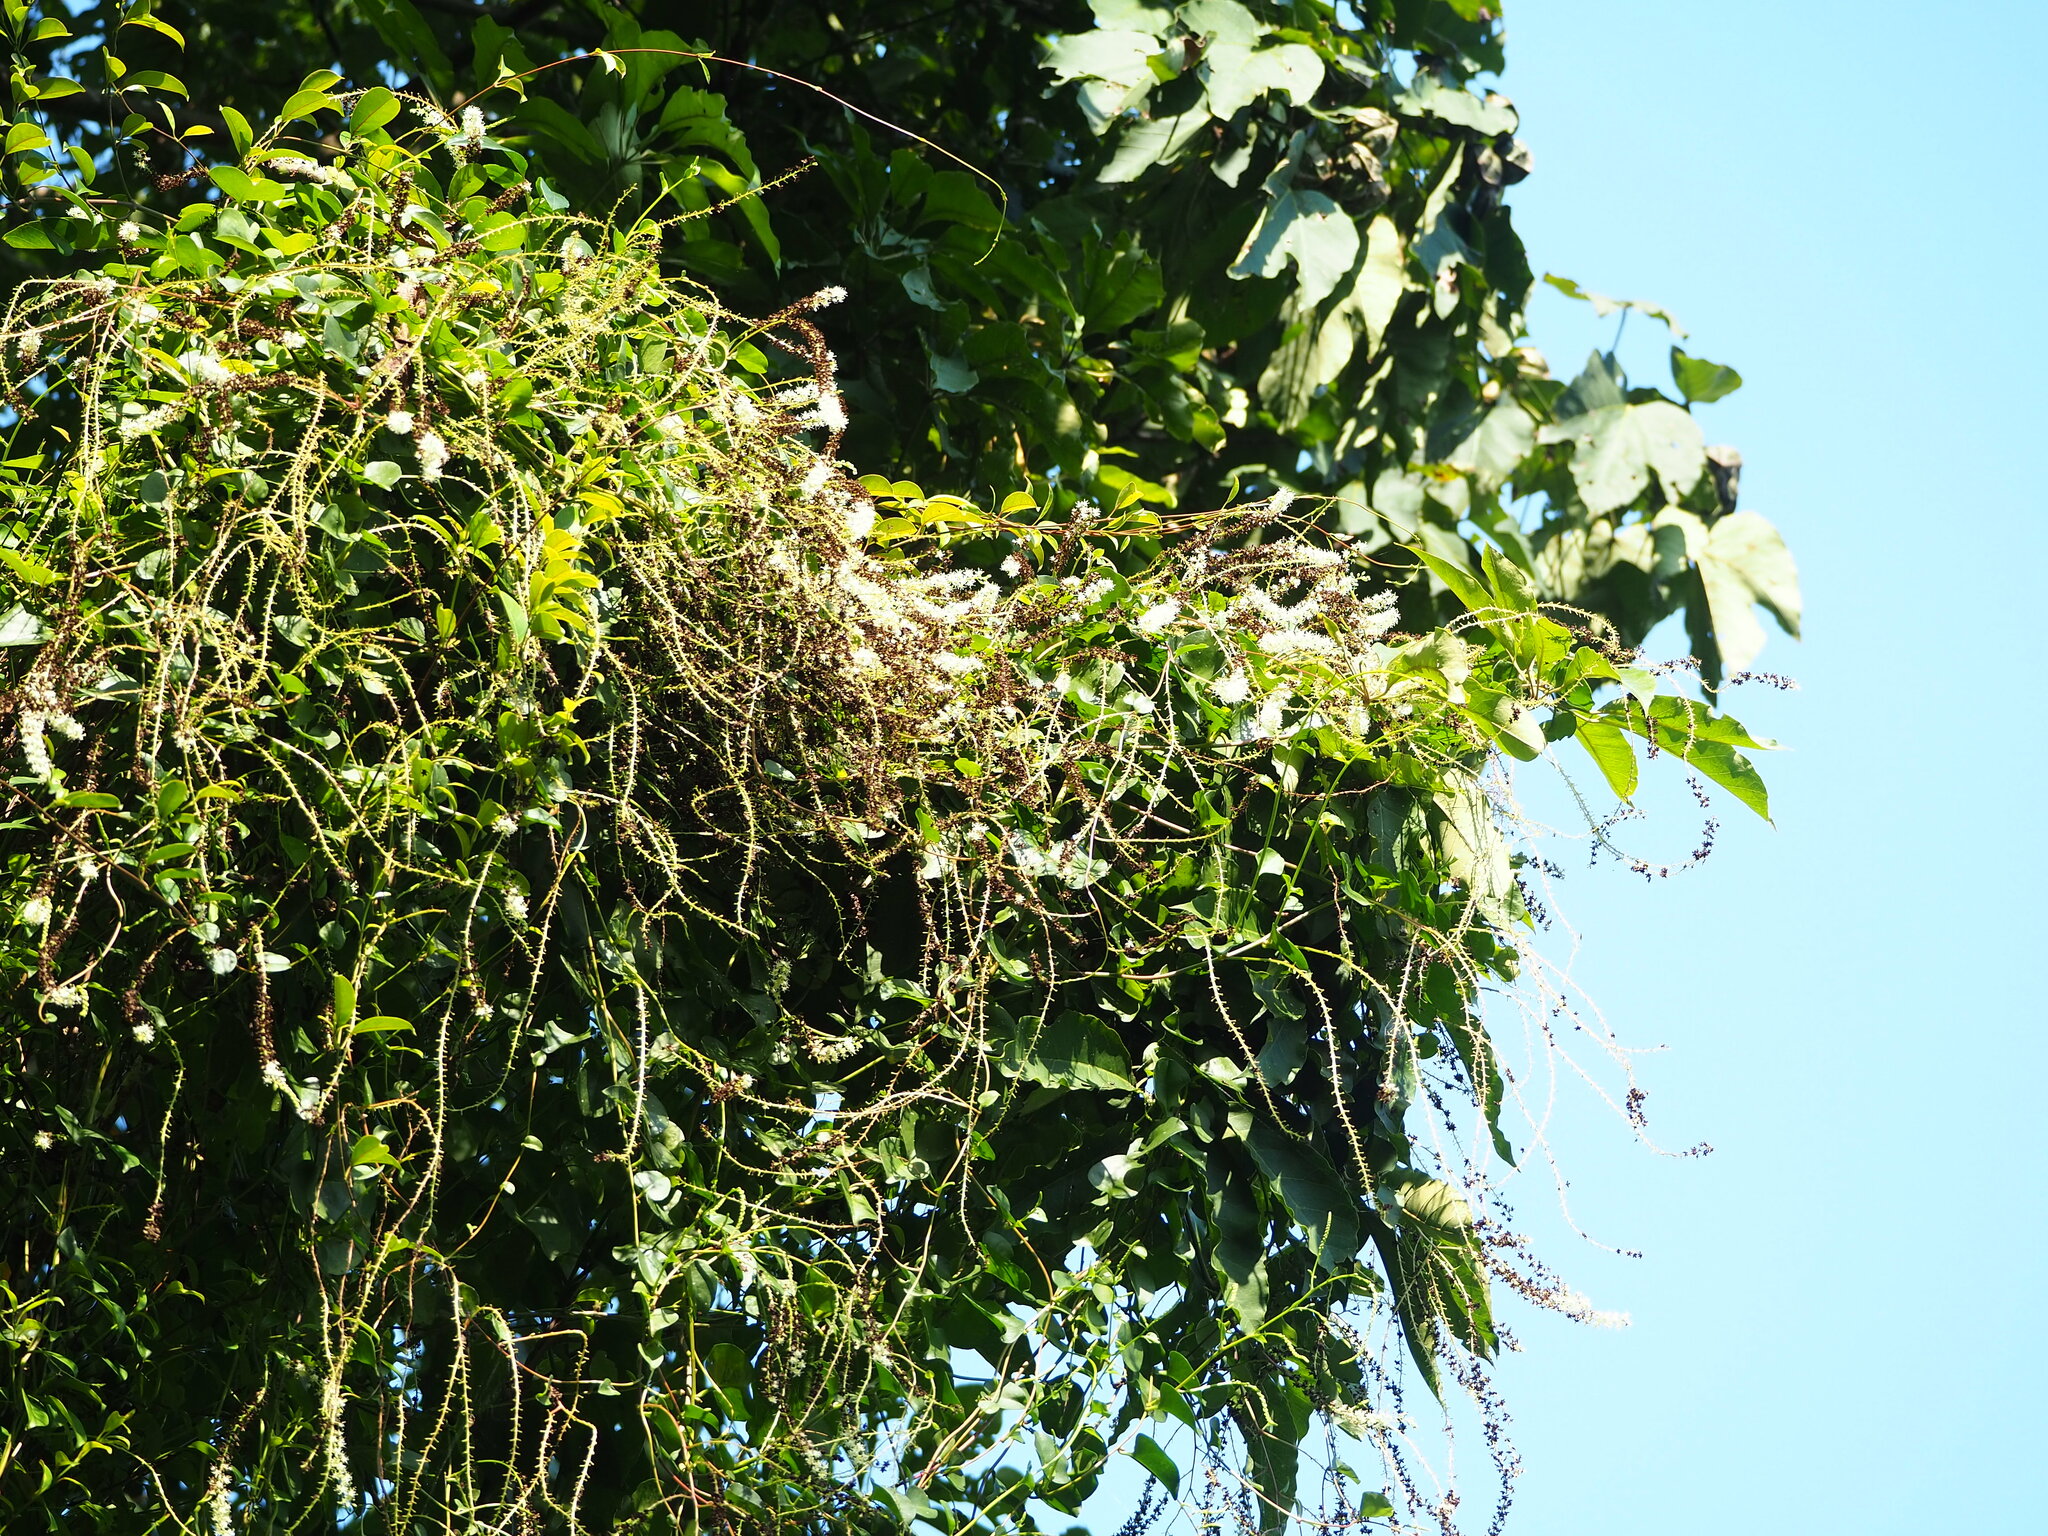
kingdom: Plantae
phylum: Tracheophyta
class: Magnoliopsida
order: Caryophyllales
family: Basellaceae
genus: Anredera
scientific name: Anredera cordifolia
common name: Heartleaf madeiravine
